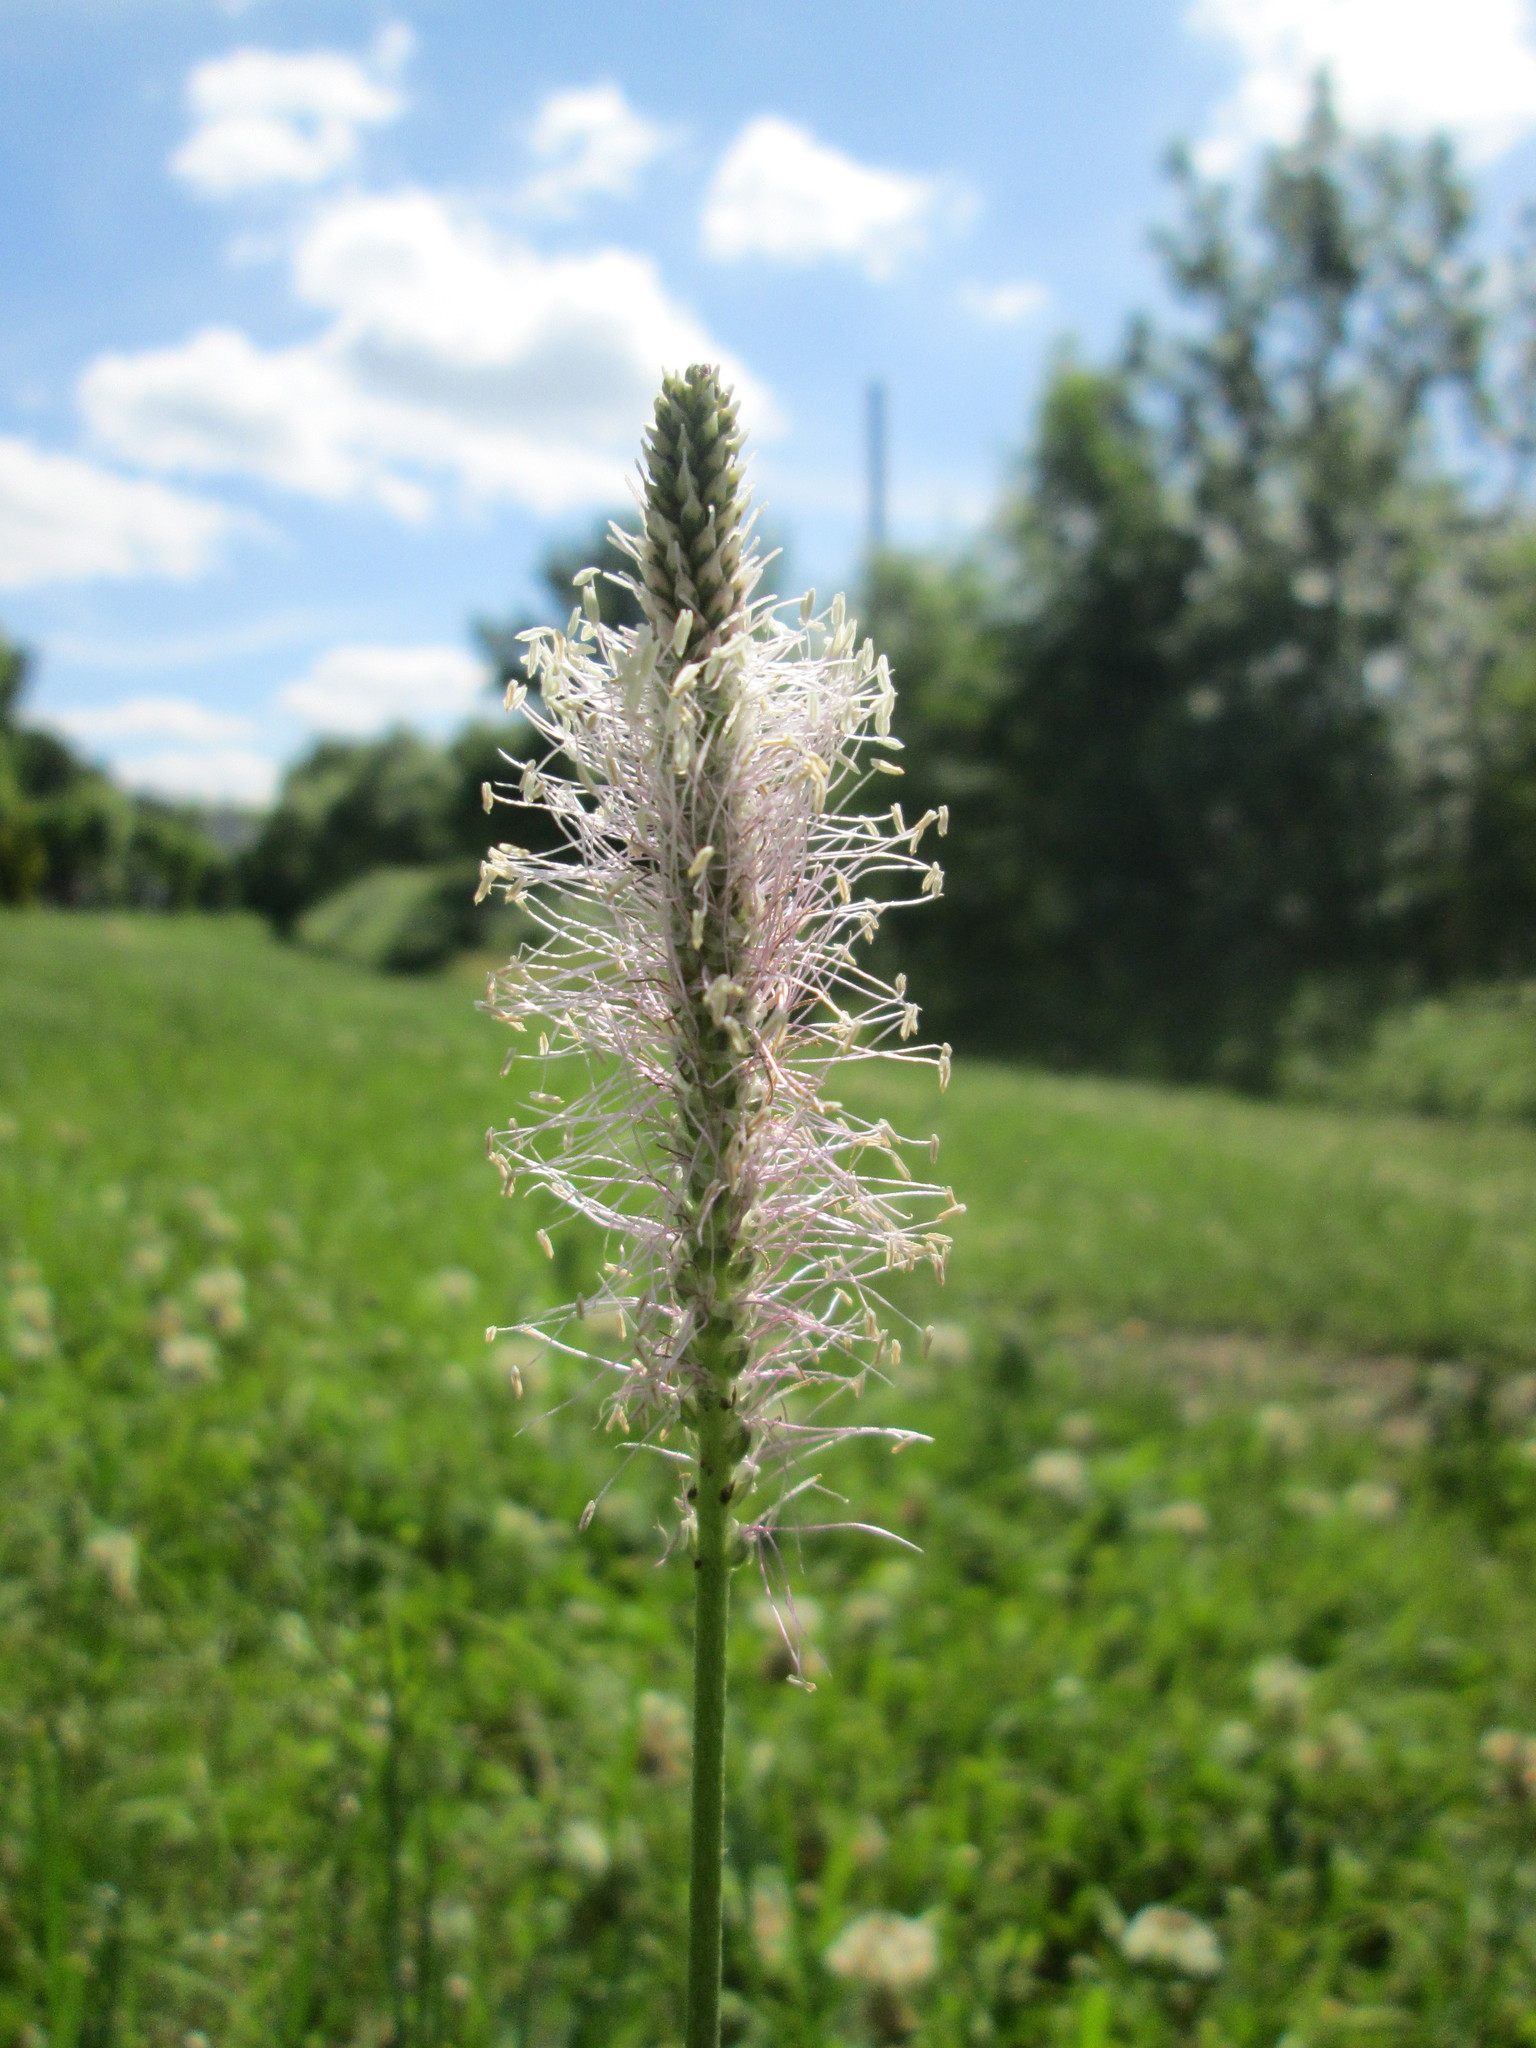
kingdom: Plantae
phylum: Tracheophyta
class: Magnoliopsida
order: Lamiales
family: Plantaginaceae
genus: Plantago
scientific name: Plantago media
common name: Hoary plantain
